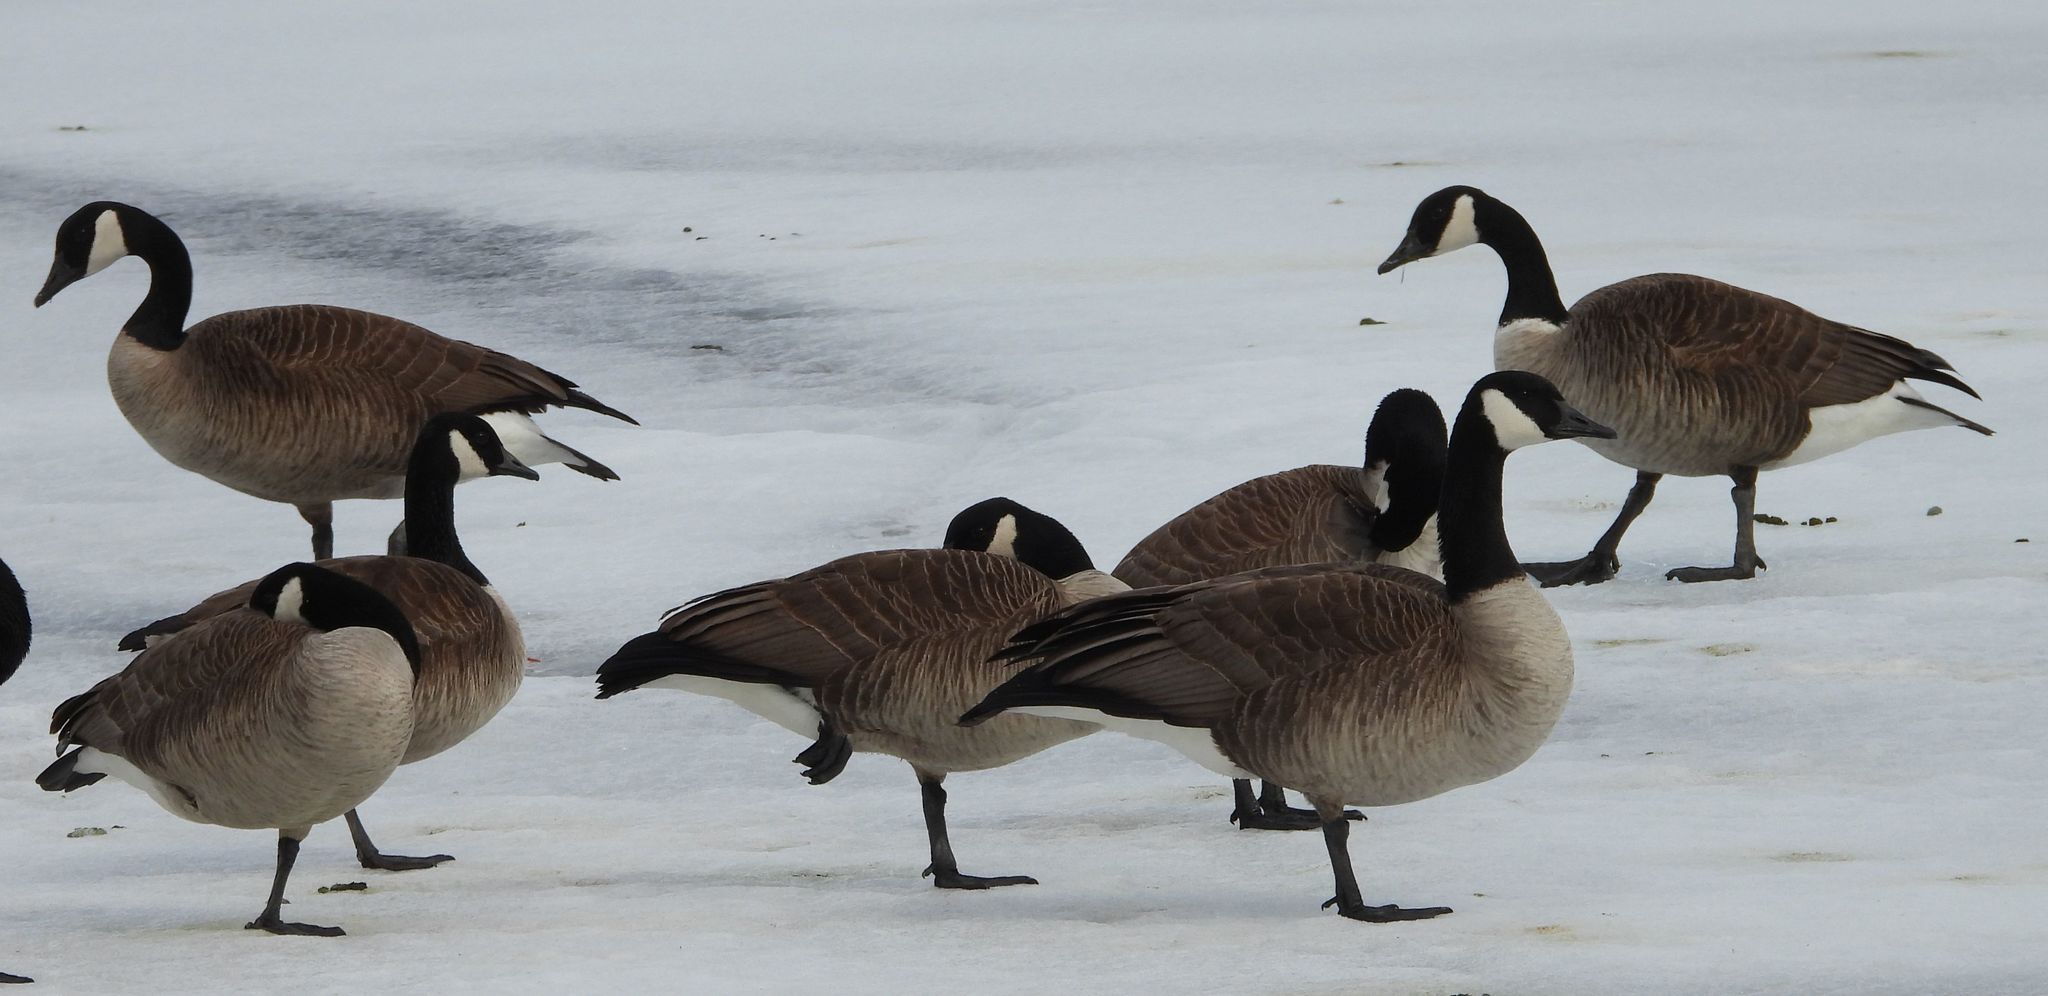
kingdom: Animalia
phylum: Chordata
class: Aves
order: Anseriformes
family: Anatidae
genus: Branta
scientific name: Branta canadensis
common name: Canada goose
